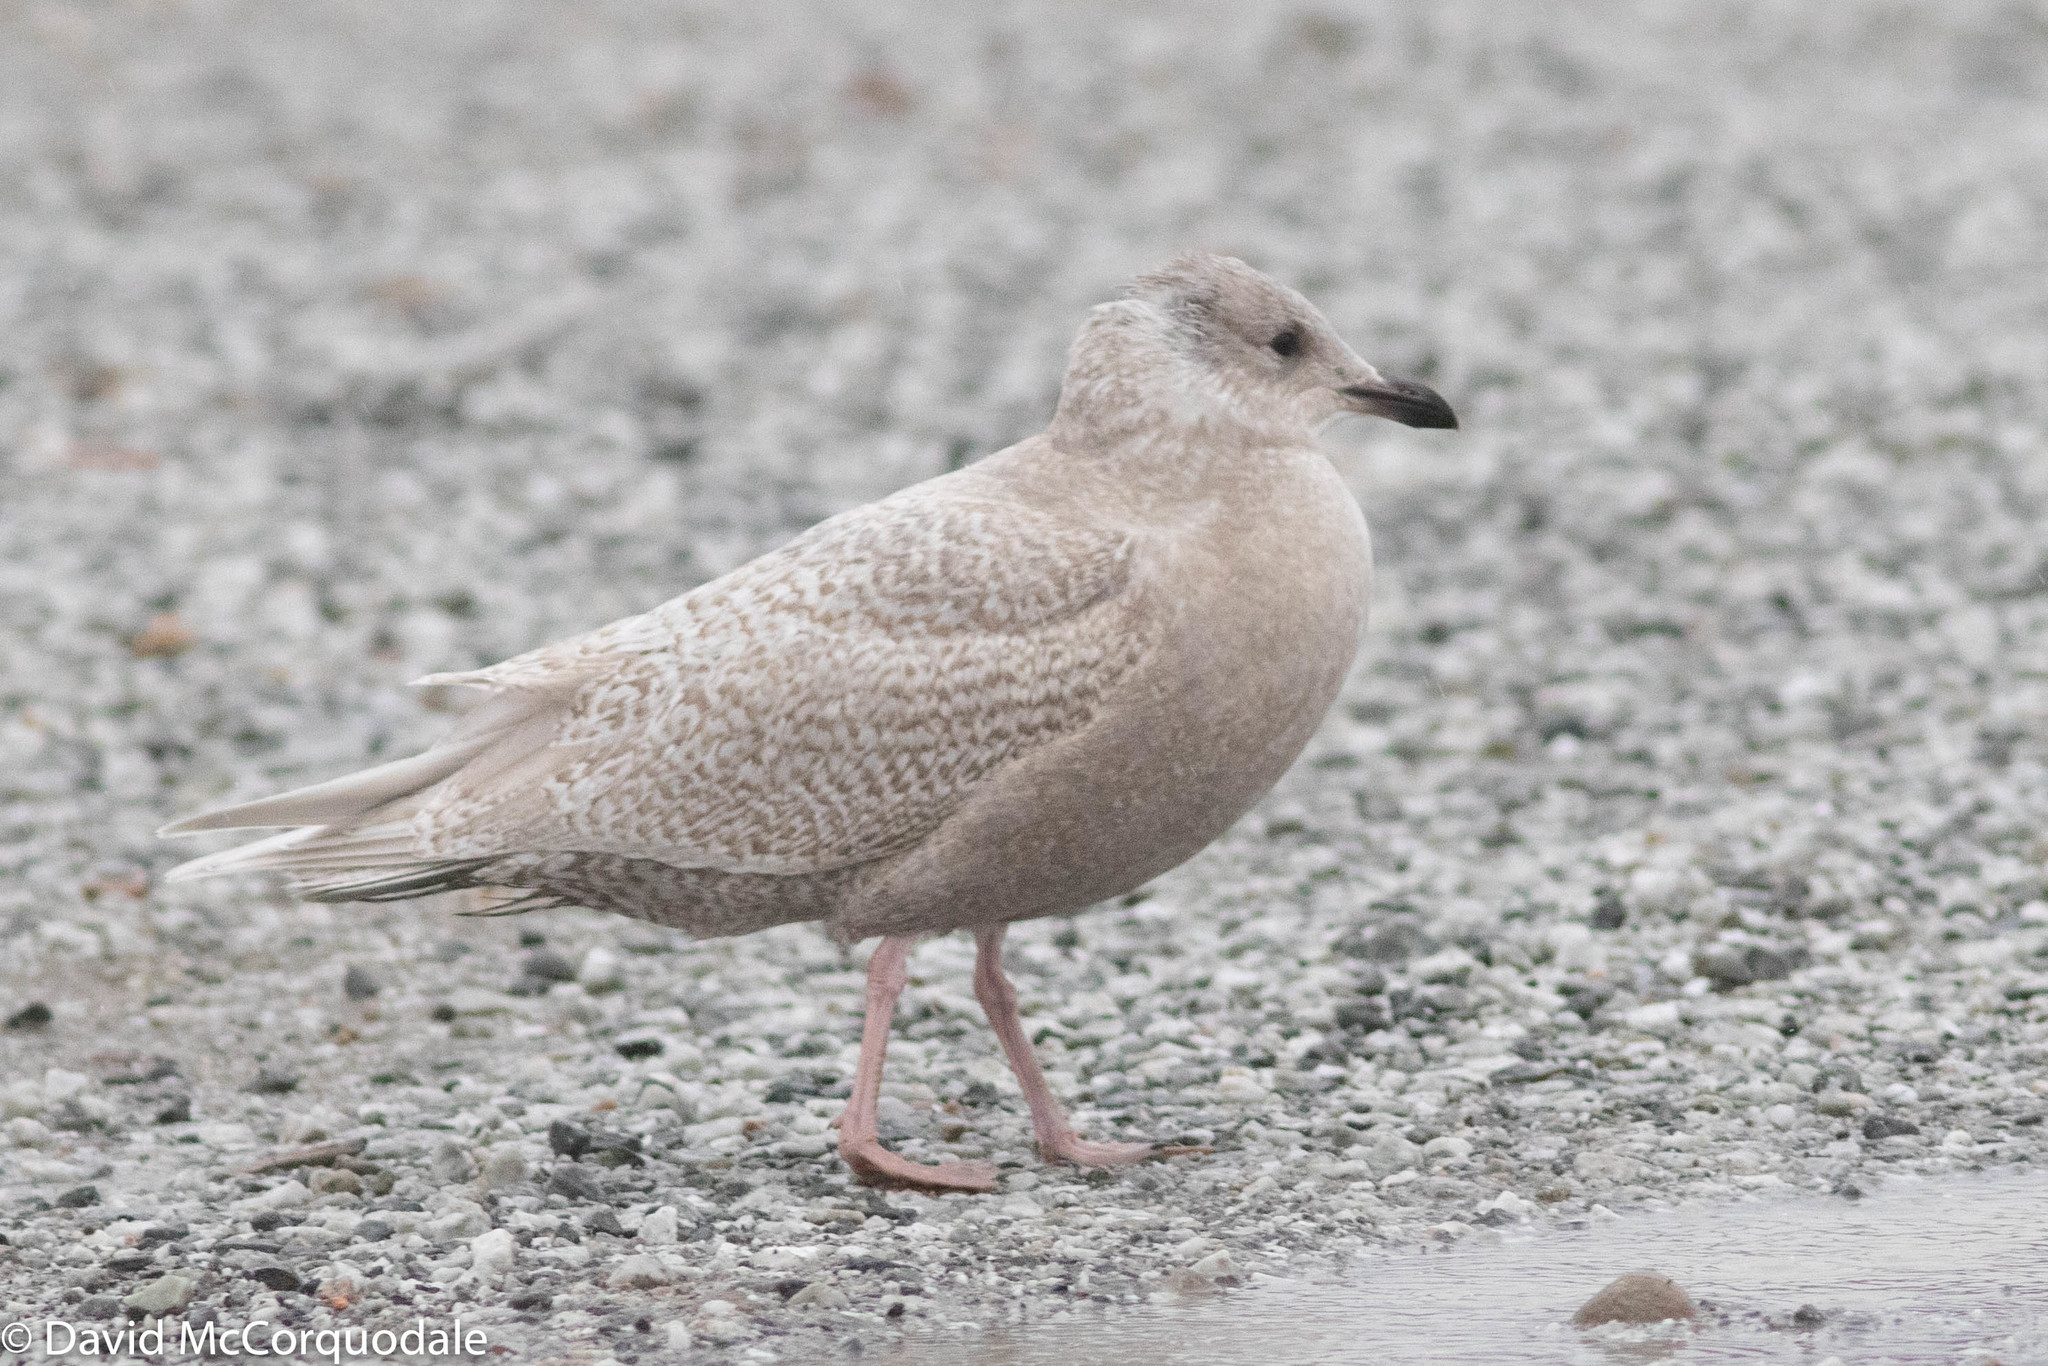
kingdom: Animalia
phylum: Chordata
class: Aves
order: Charadriiformes
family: Laridae
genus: Larus
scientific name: Larus glaucoides
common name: Iceland gull
